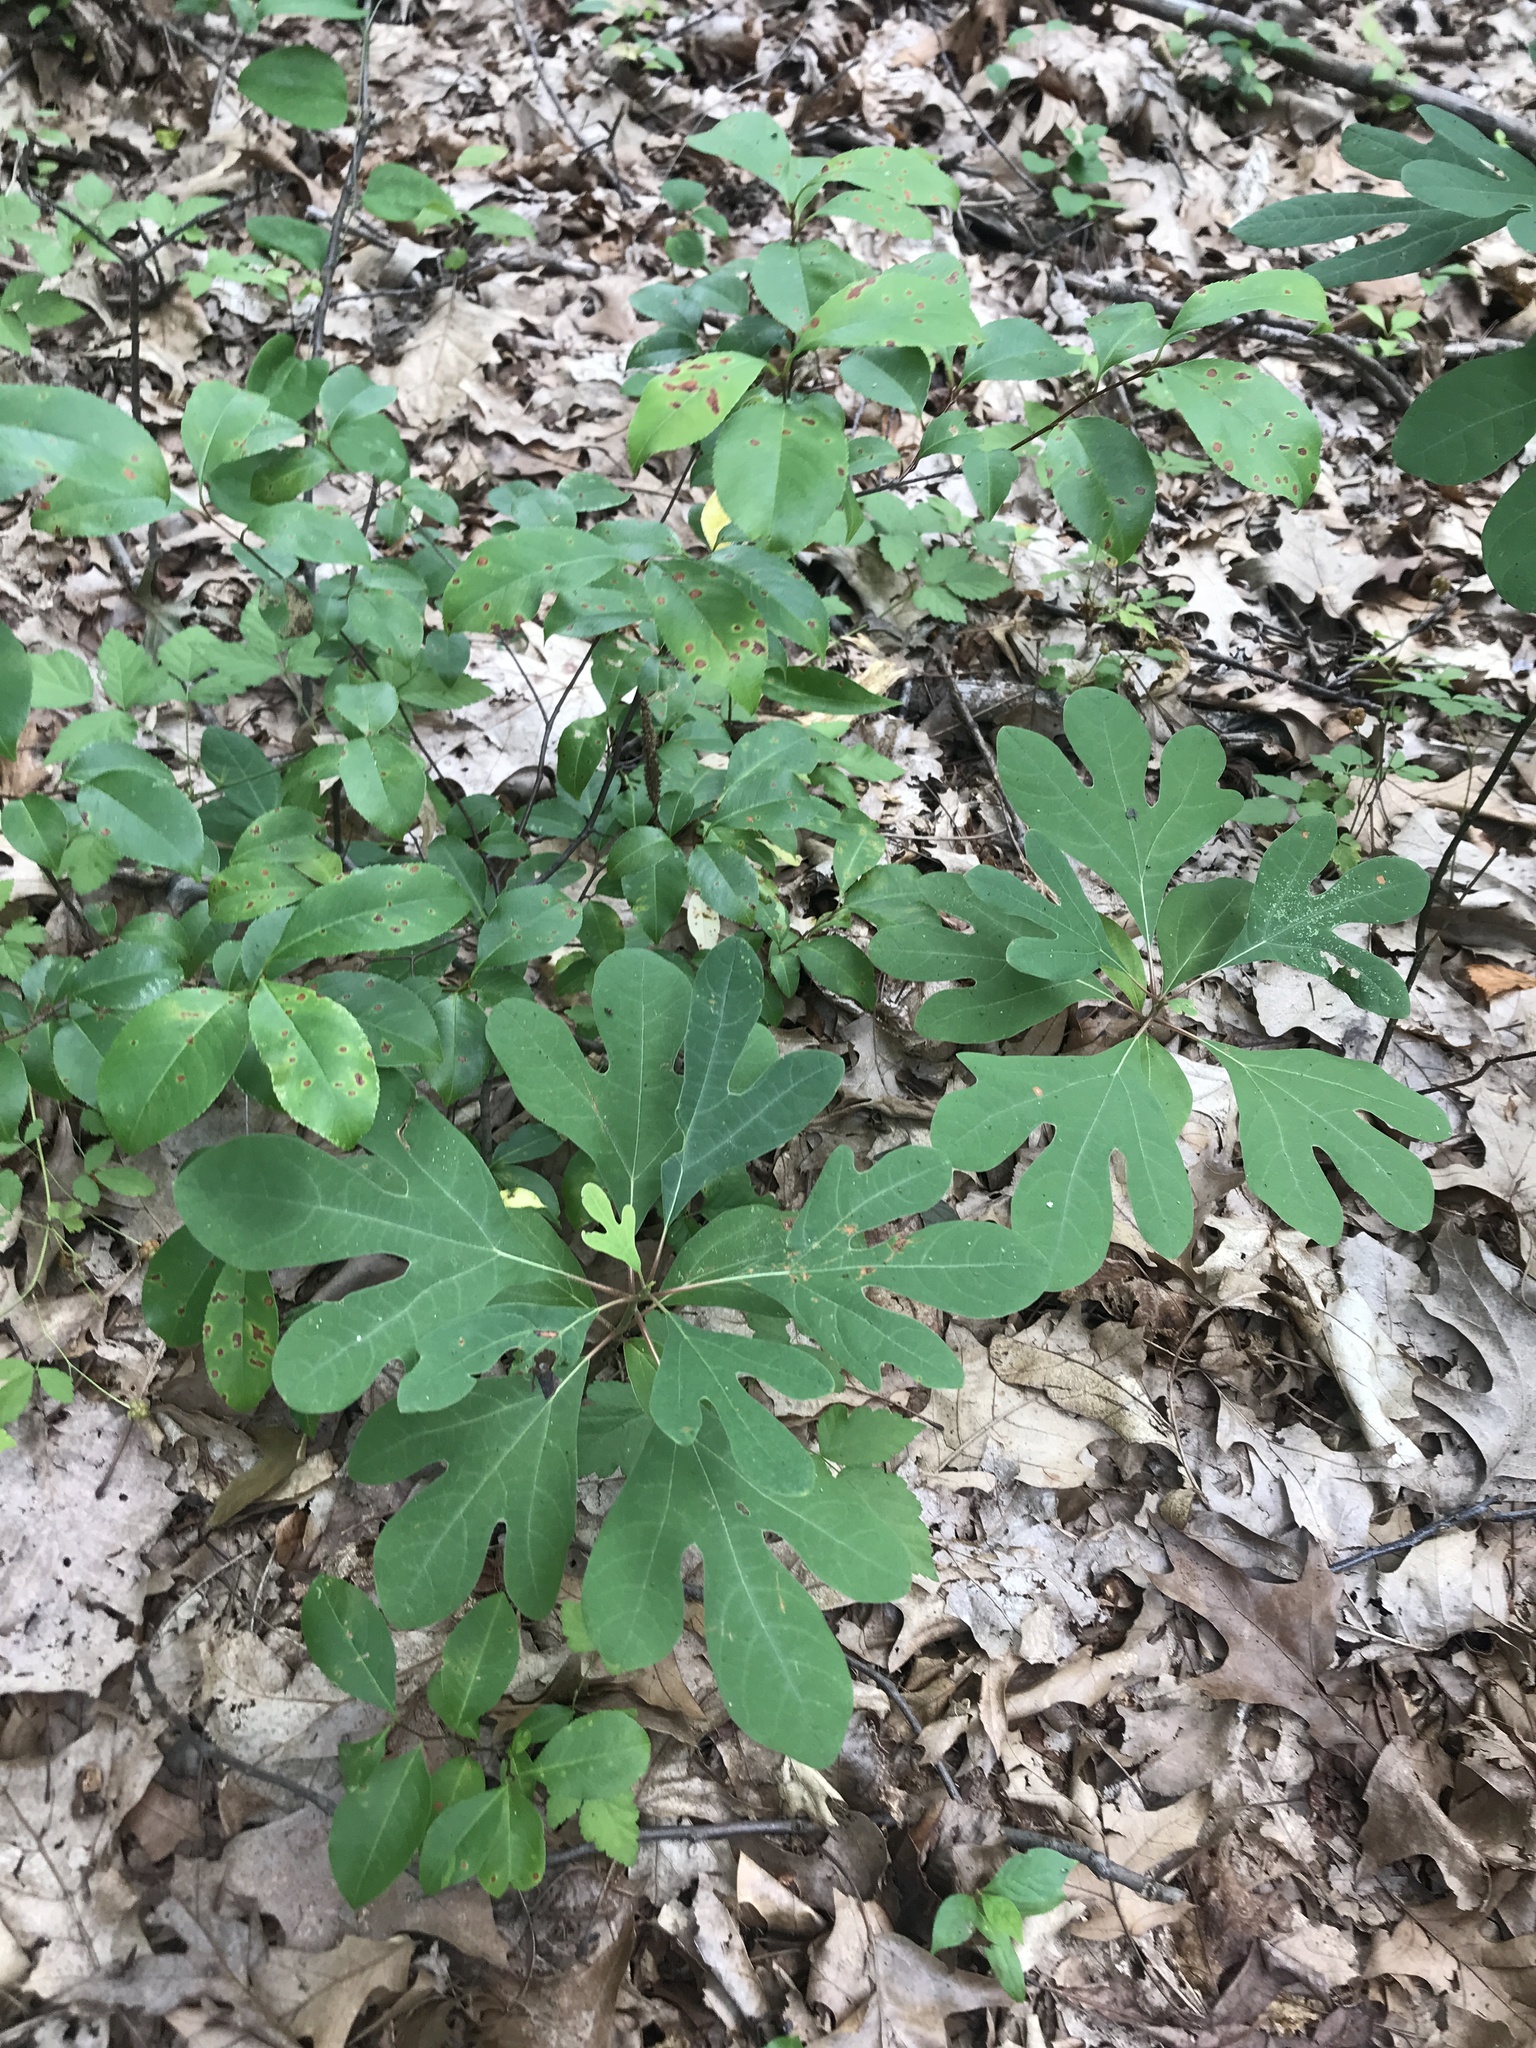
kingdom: Plantae
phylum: Tracheophyta
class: Magnoliopsida
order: Laurales
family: Lauraceae
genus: Sassafras
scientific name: Sassafras albidum
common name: Sassafras
